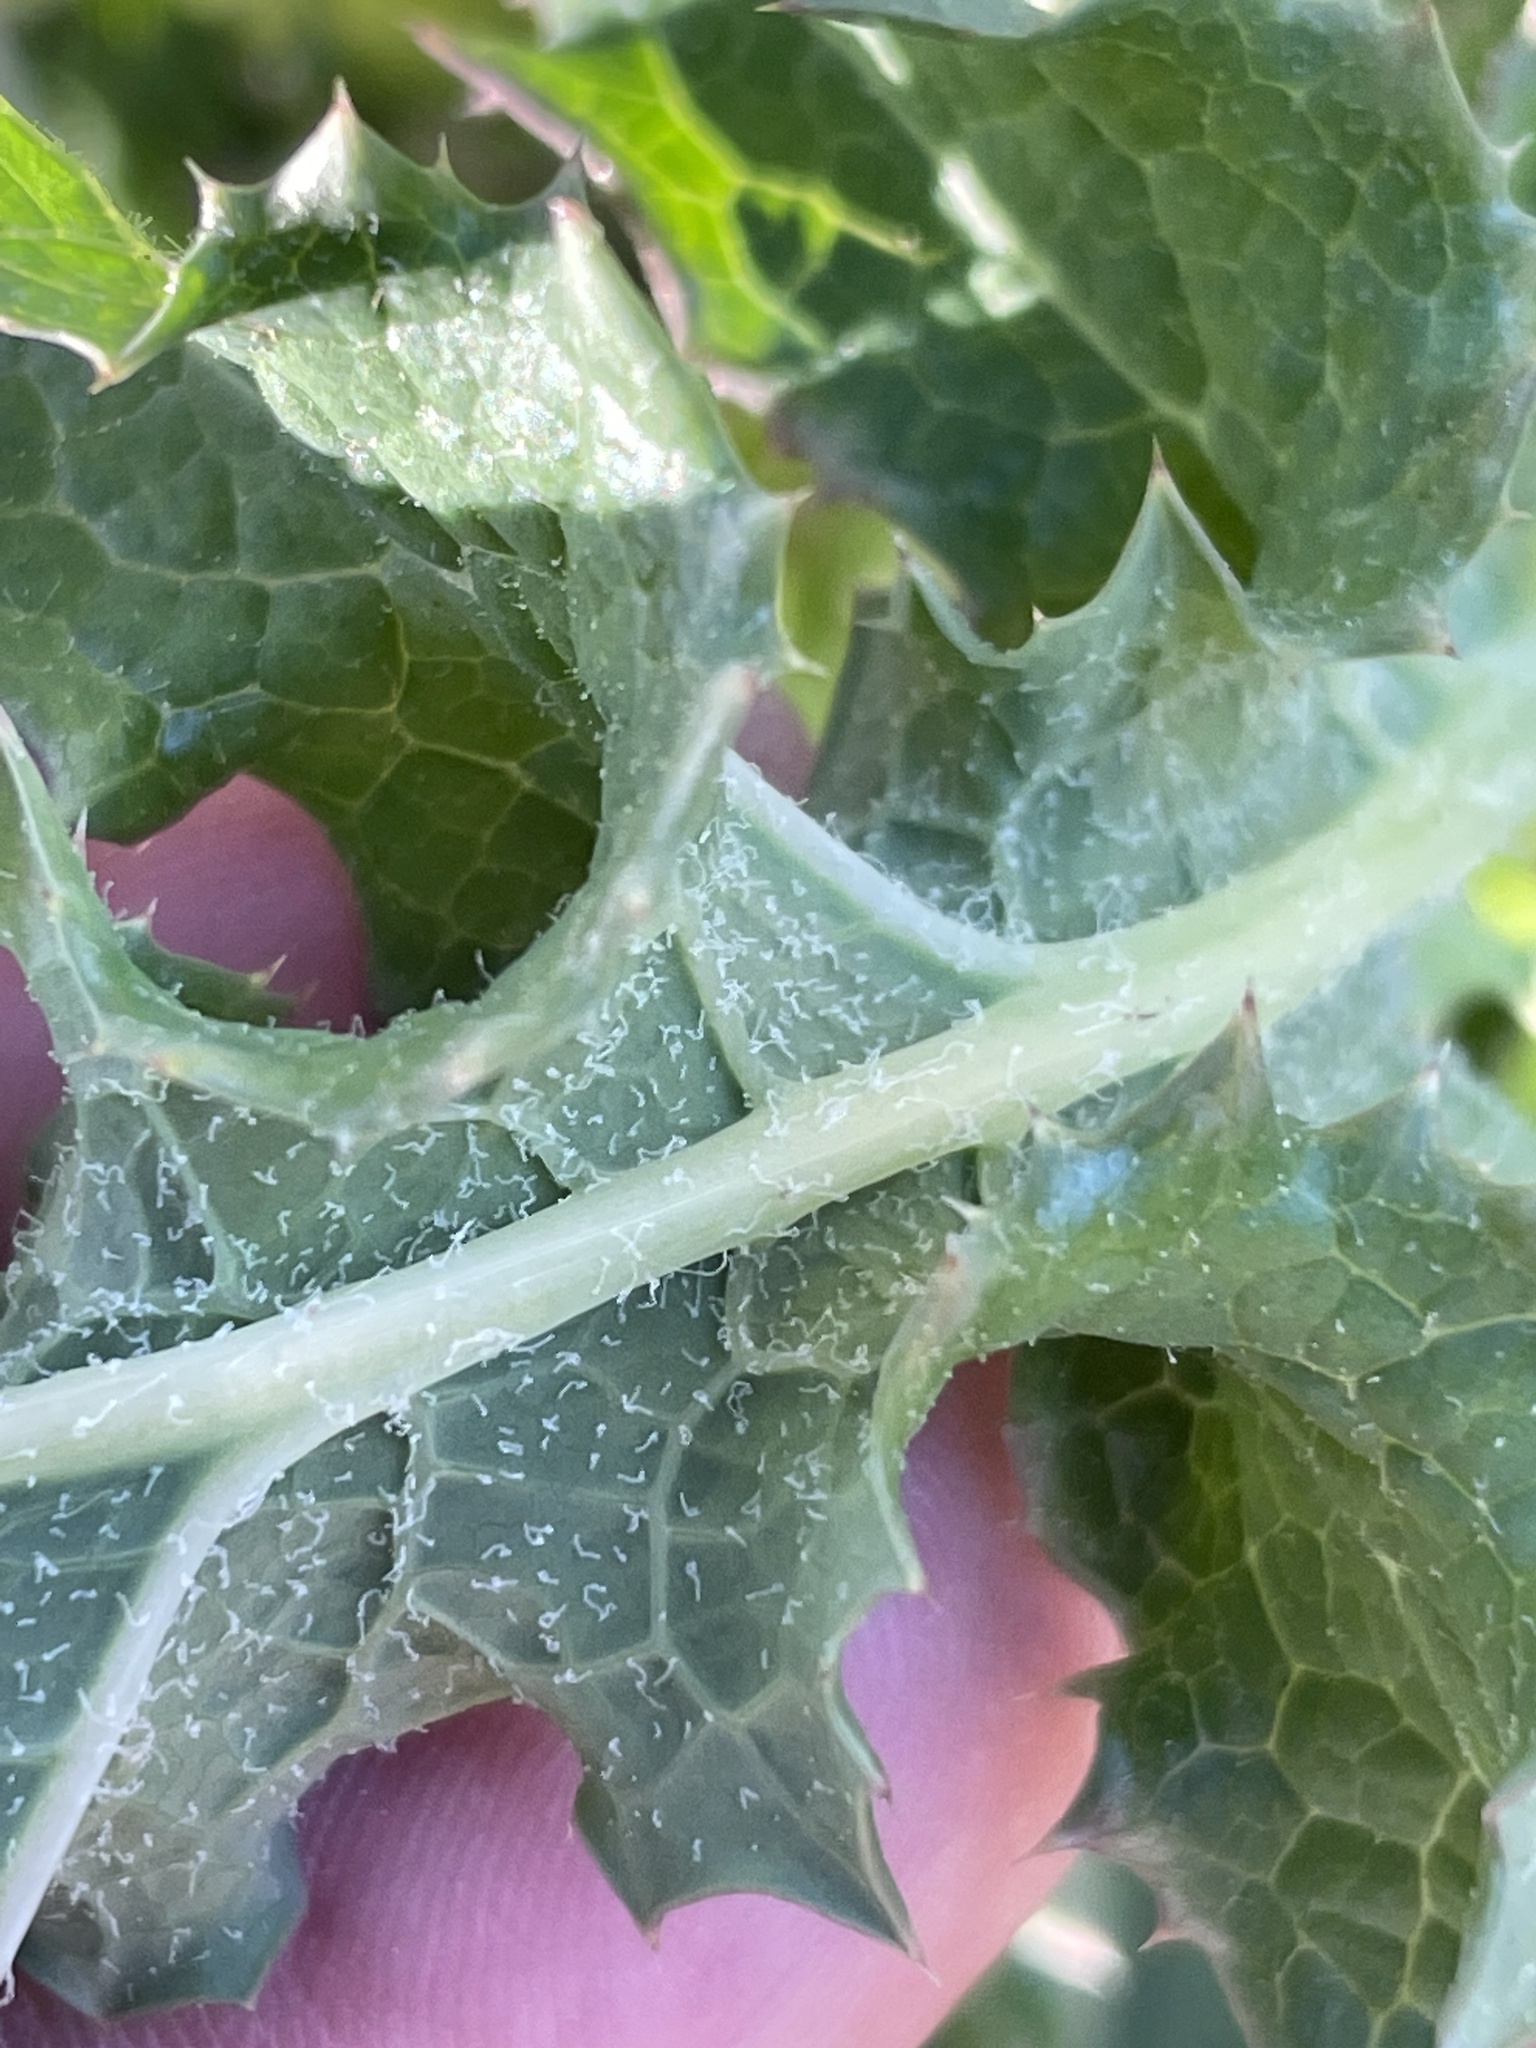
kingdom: Plantae
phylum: Tracheophyta
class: Magnoliopsida
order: Asterales
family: Asteraceae
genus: Sonchus
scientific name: Sonchus asper
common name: Prickly sow-thistle
